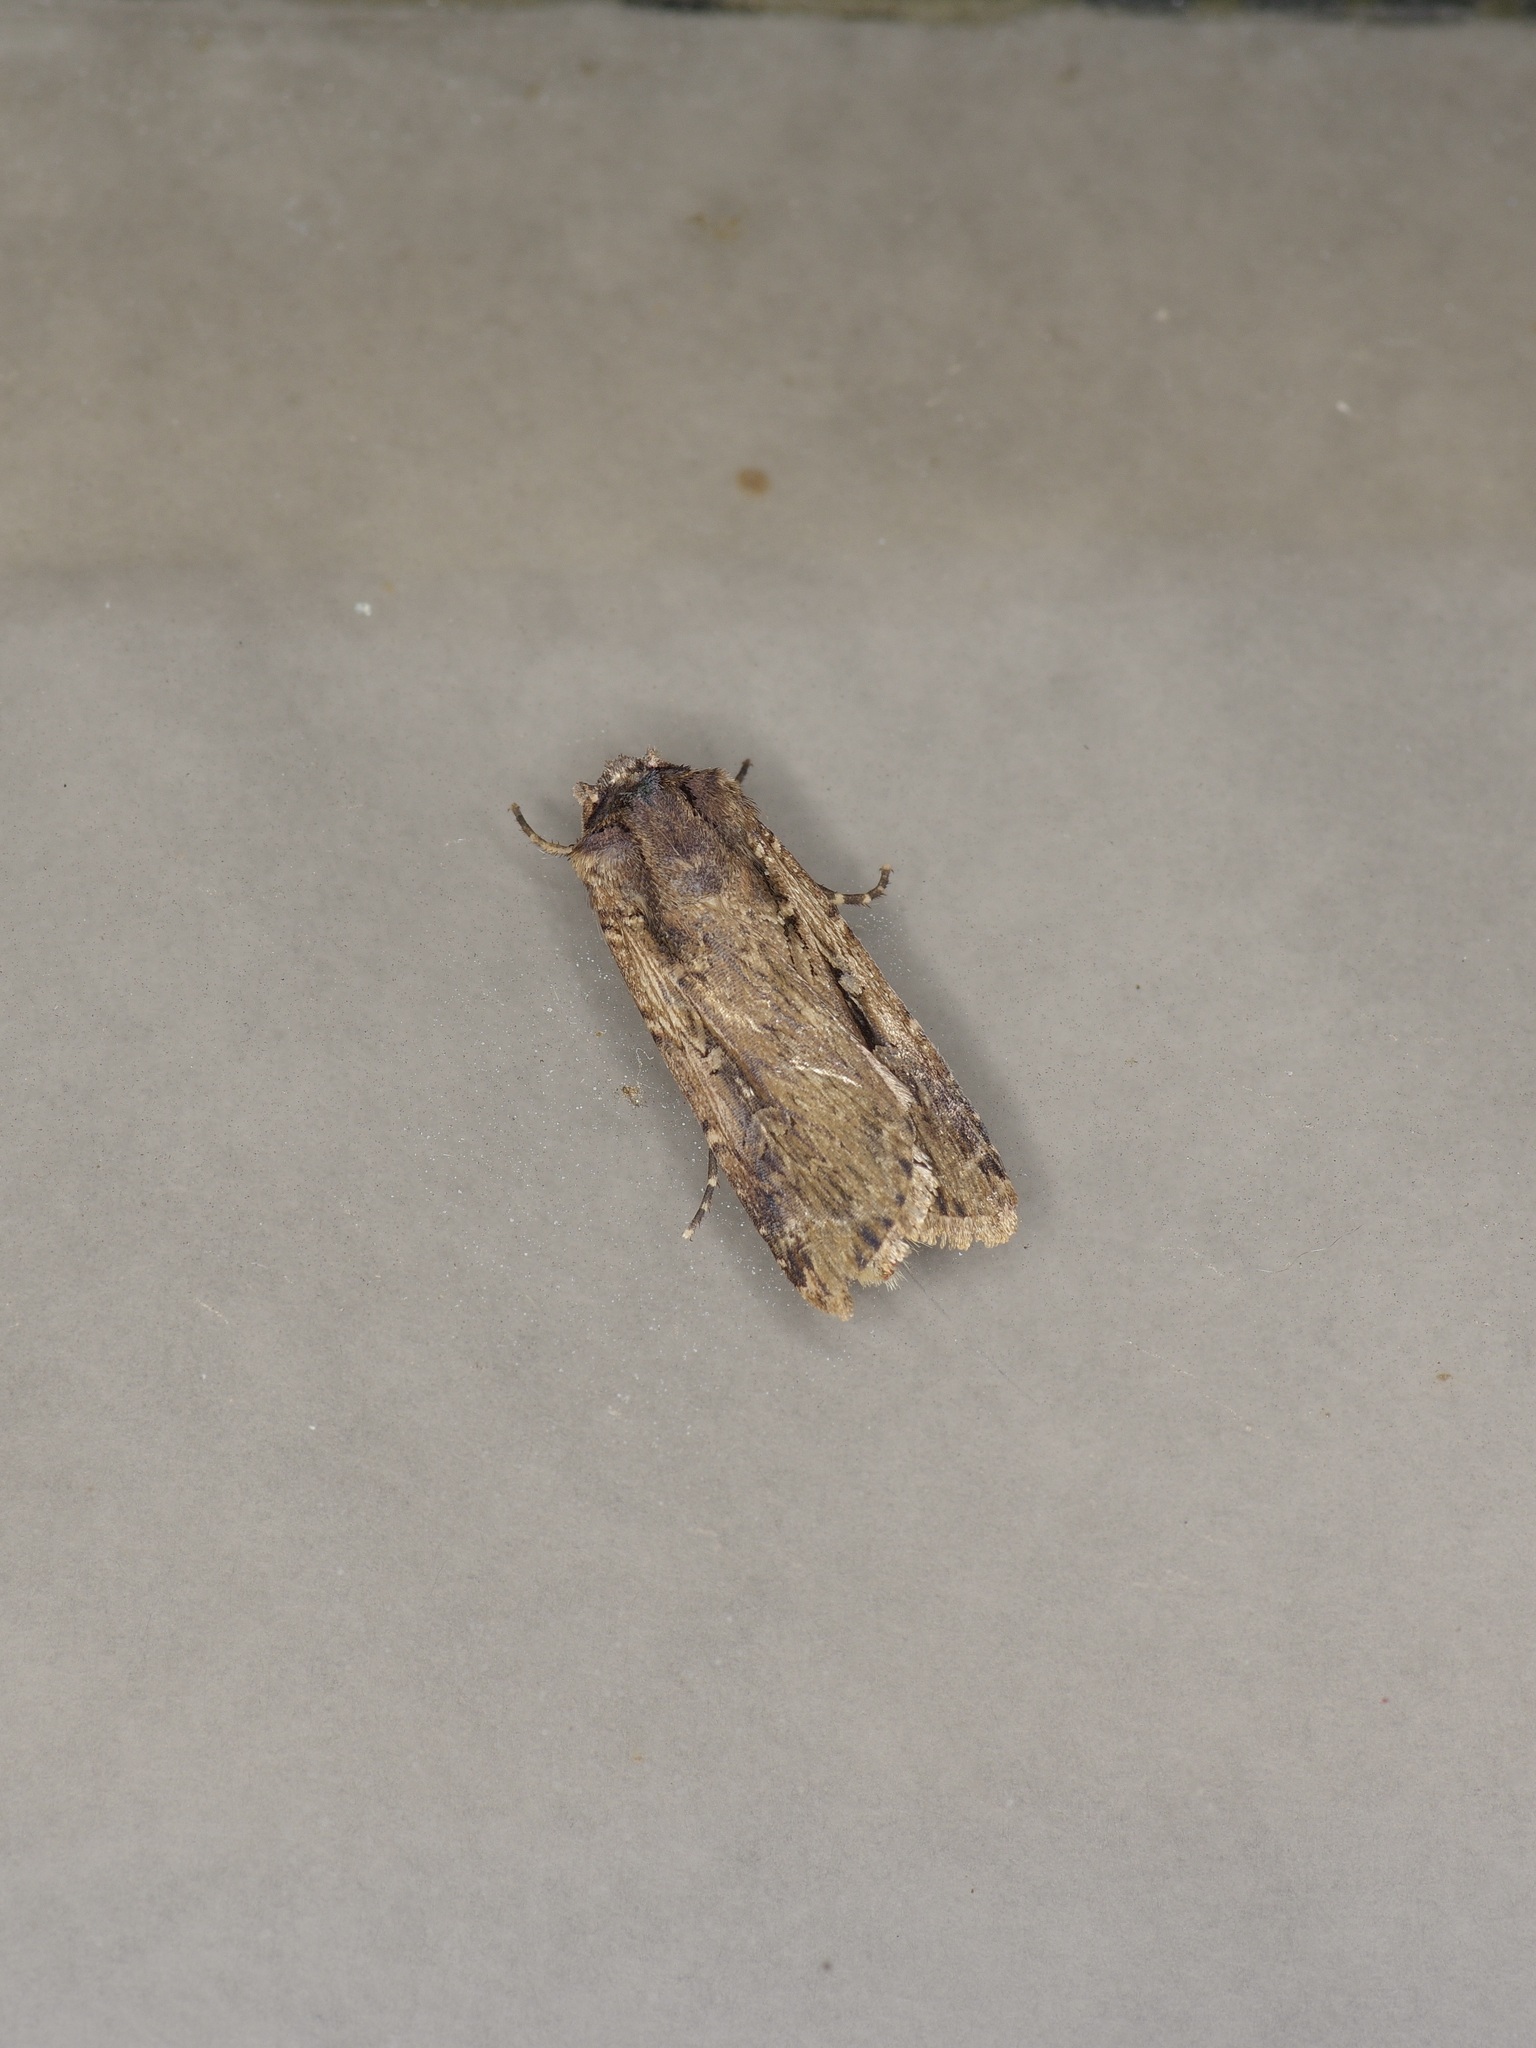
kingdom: Animalia
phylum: Arthropoda
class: Insecta
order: Lepidoptera
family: Noctuidae
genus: Feltia
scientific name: Feltia subterranea
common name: Granulate cutworm
